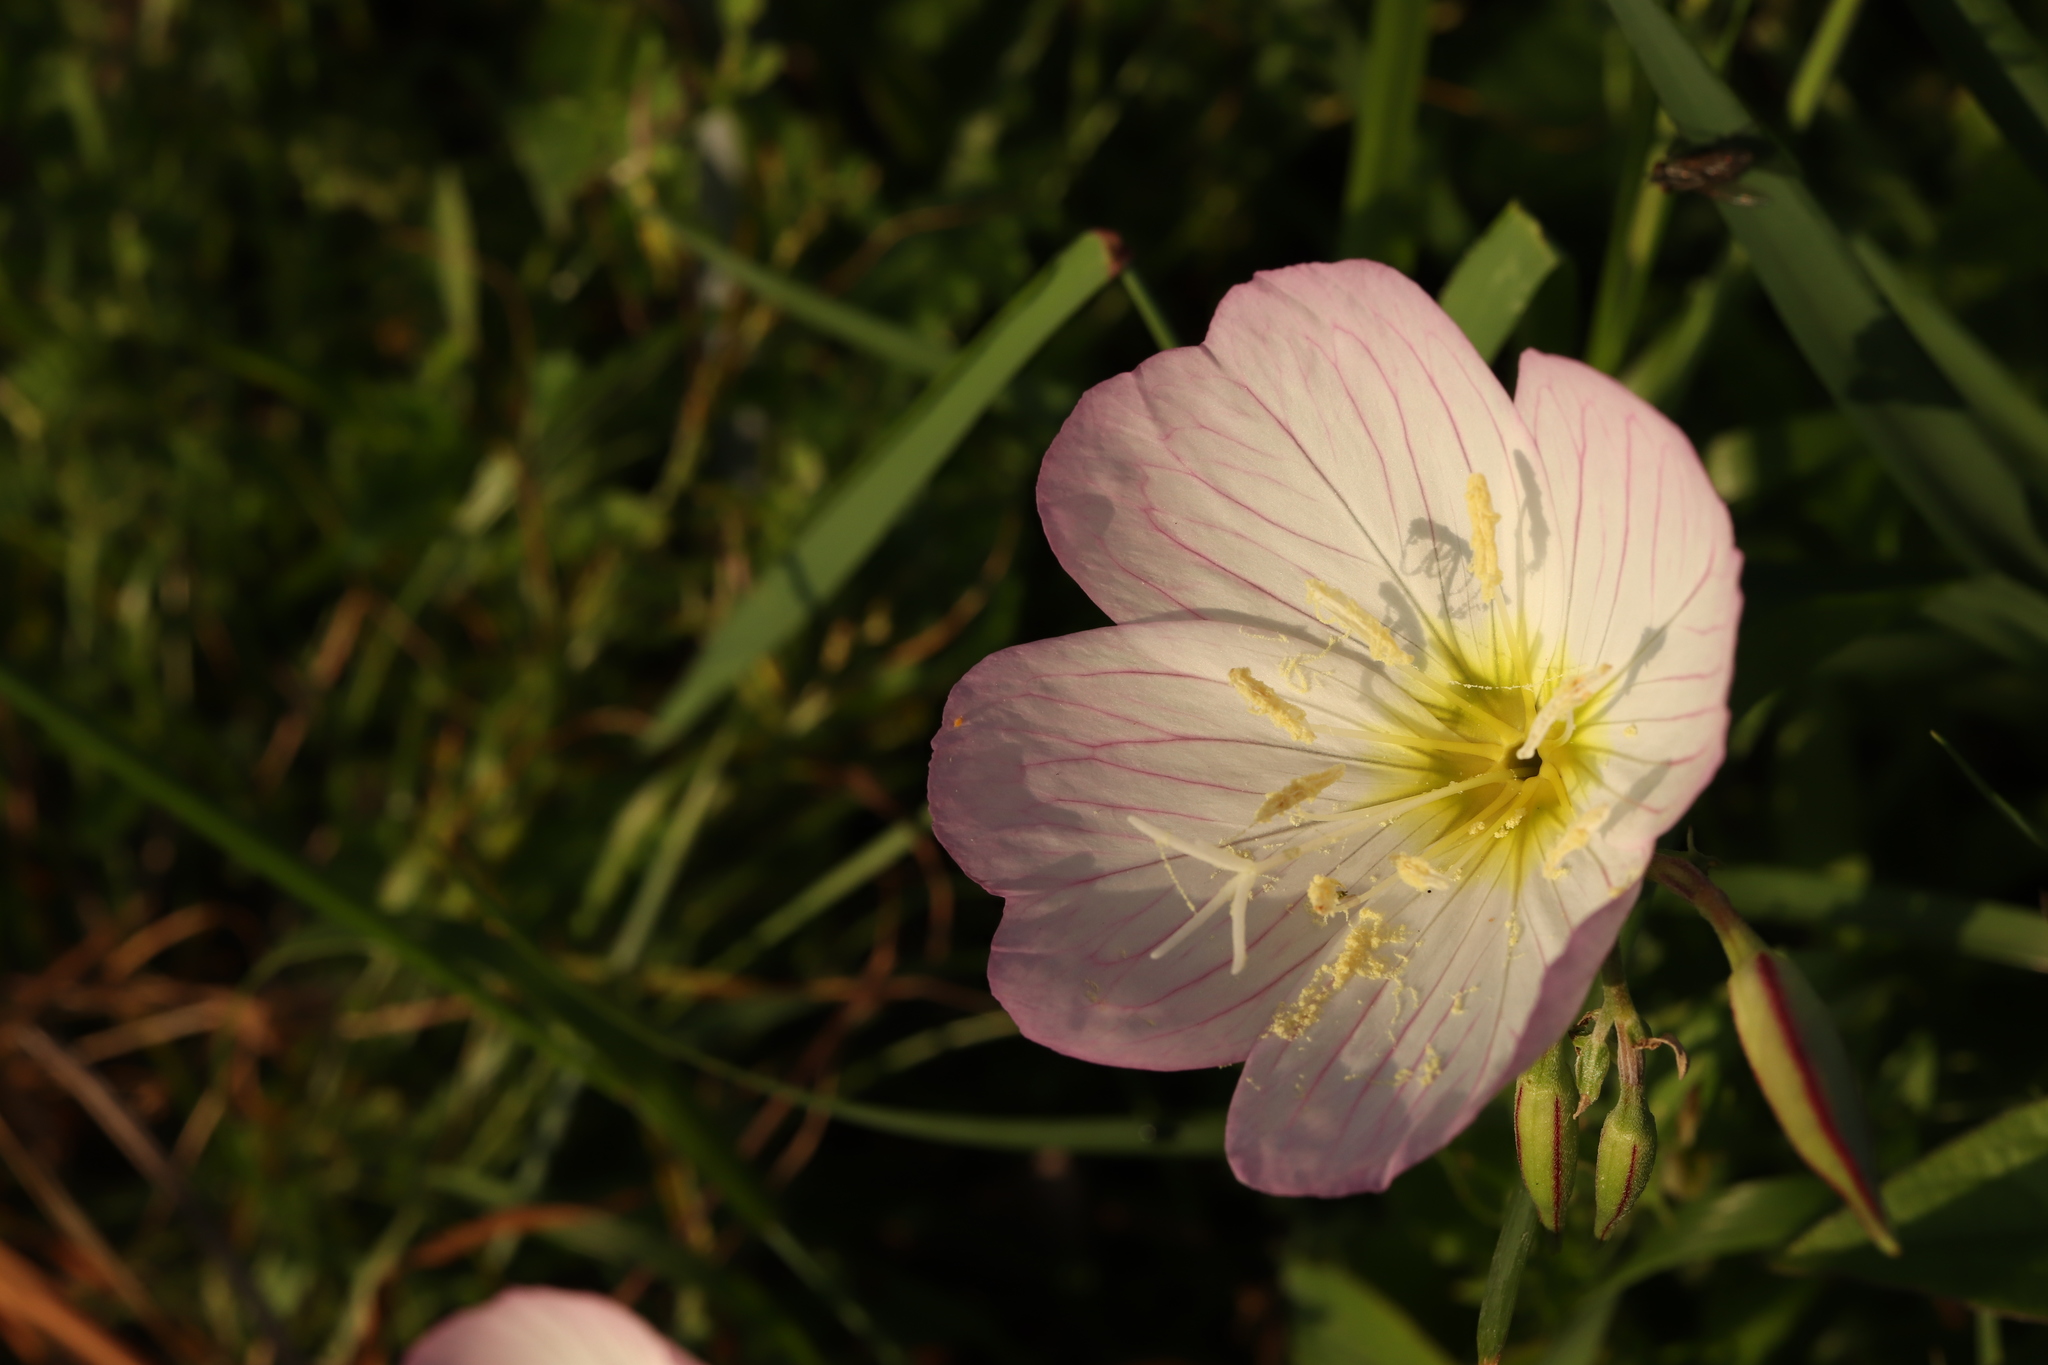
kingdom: Plantae
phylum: Tracheophyta
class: Magnoliopsida
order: Myrtales
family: Onagraceae
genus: Oenothera
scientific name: Oenothera speciosa
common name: White evening-primrose
